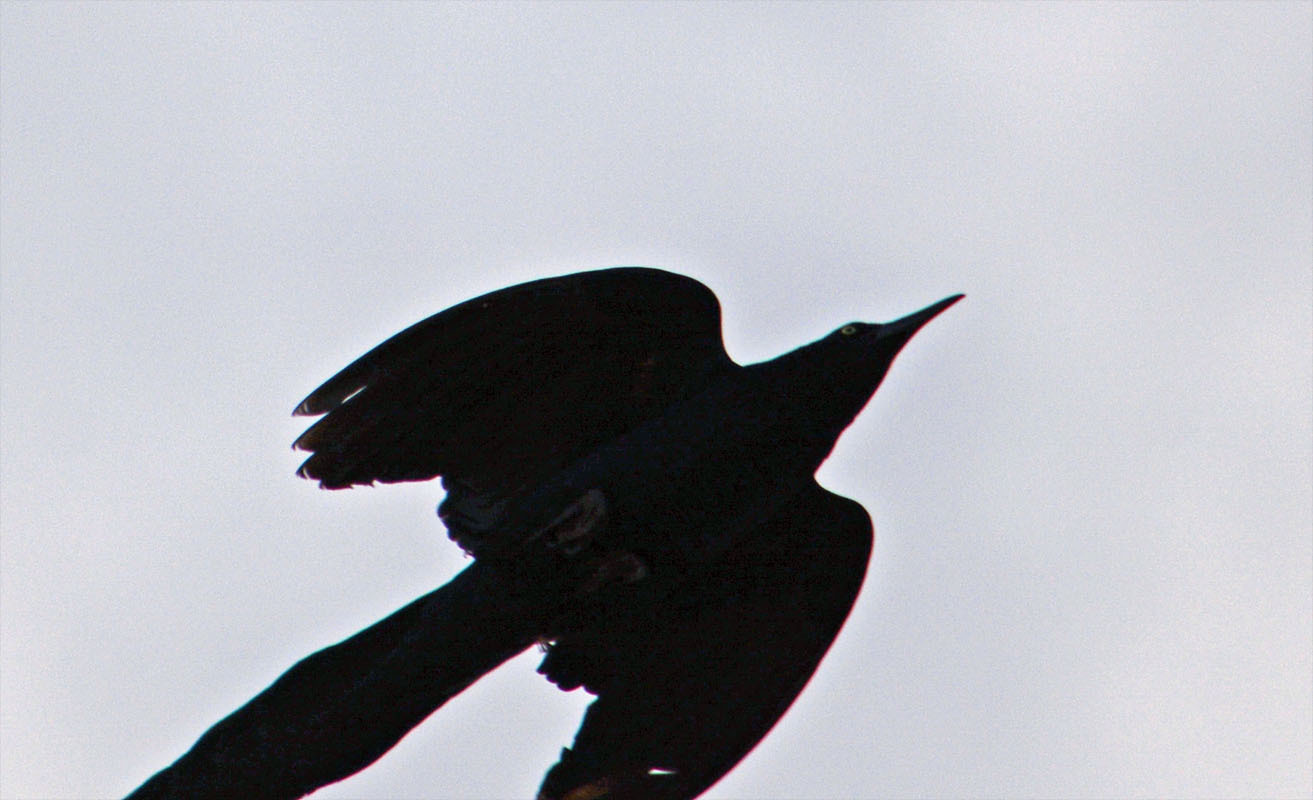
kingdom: Animalia
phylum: Chordata
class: Aves
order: Passeriformes
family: Icteridae
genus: Quiscalus
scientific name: Quiscalus mexicanus
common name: Great-tailed grackle
